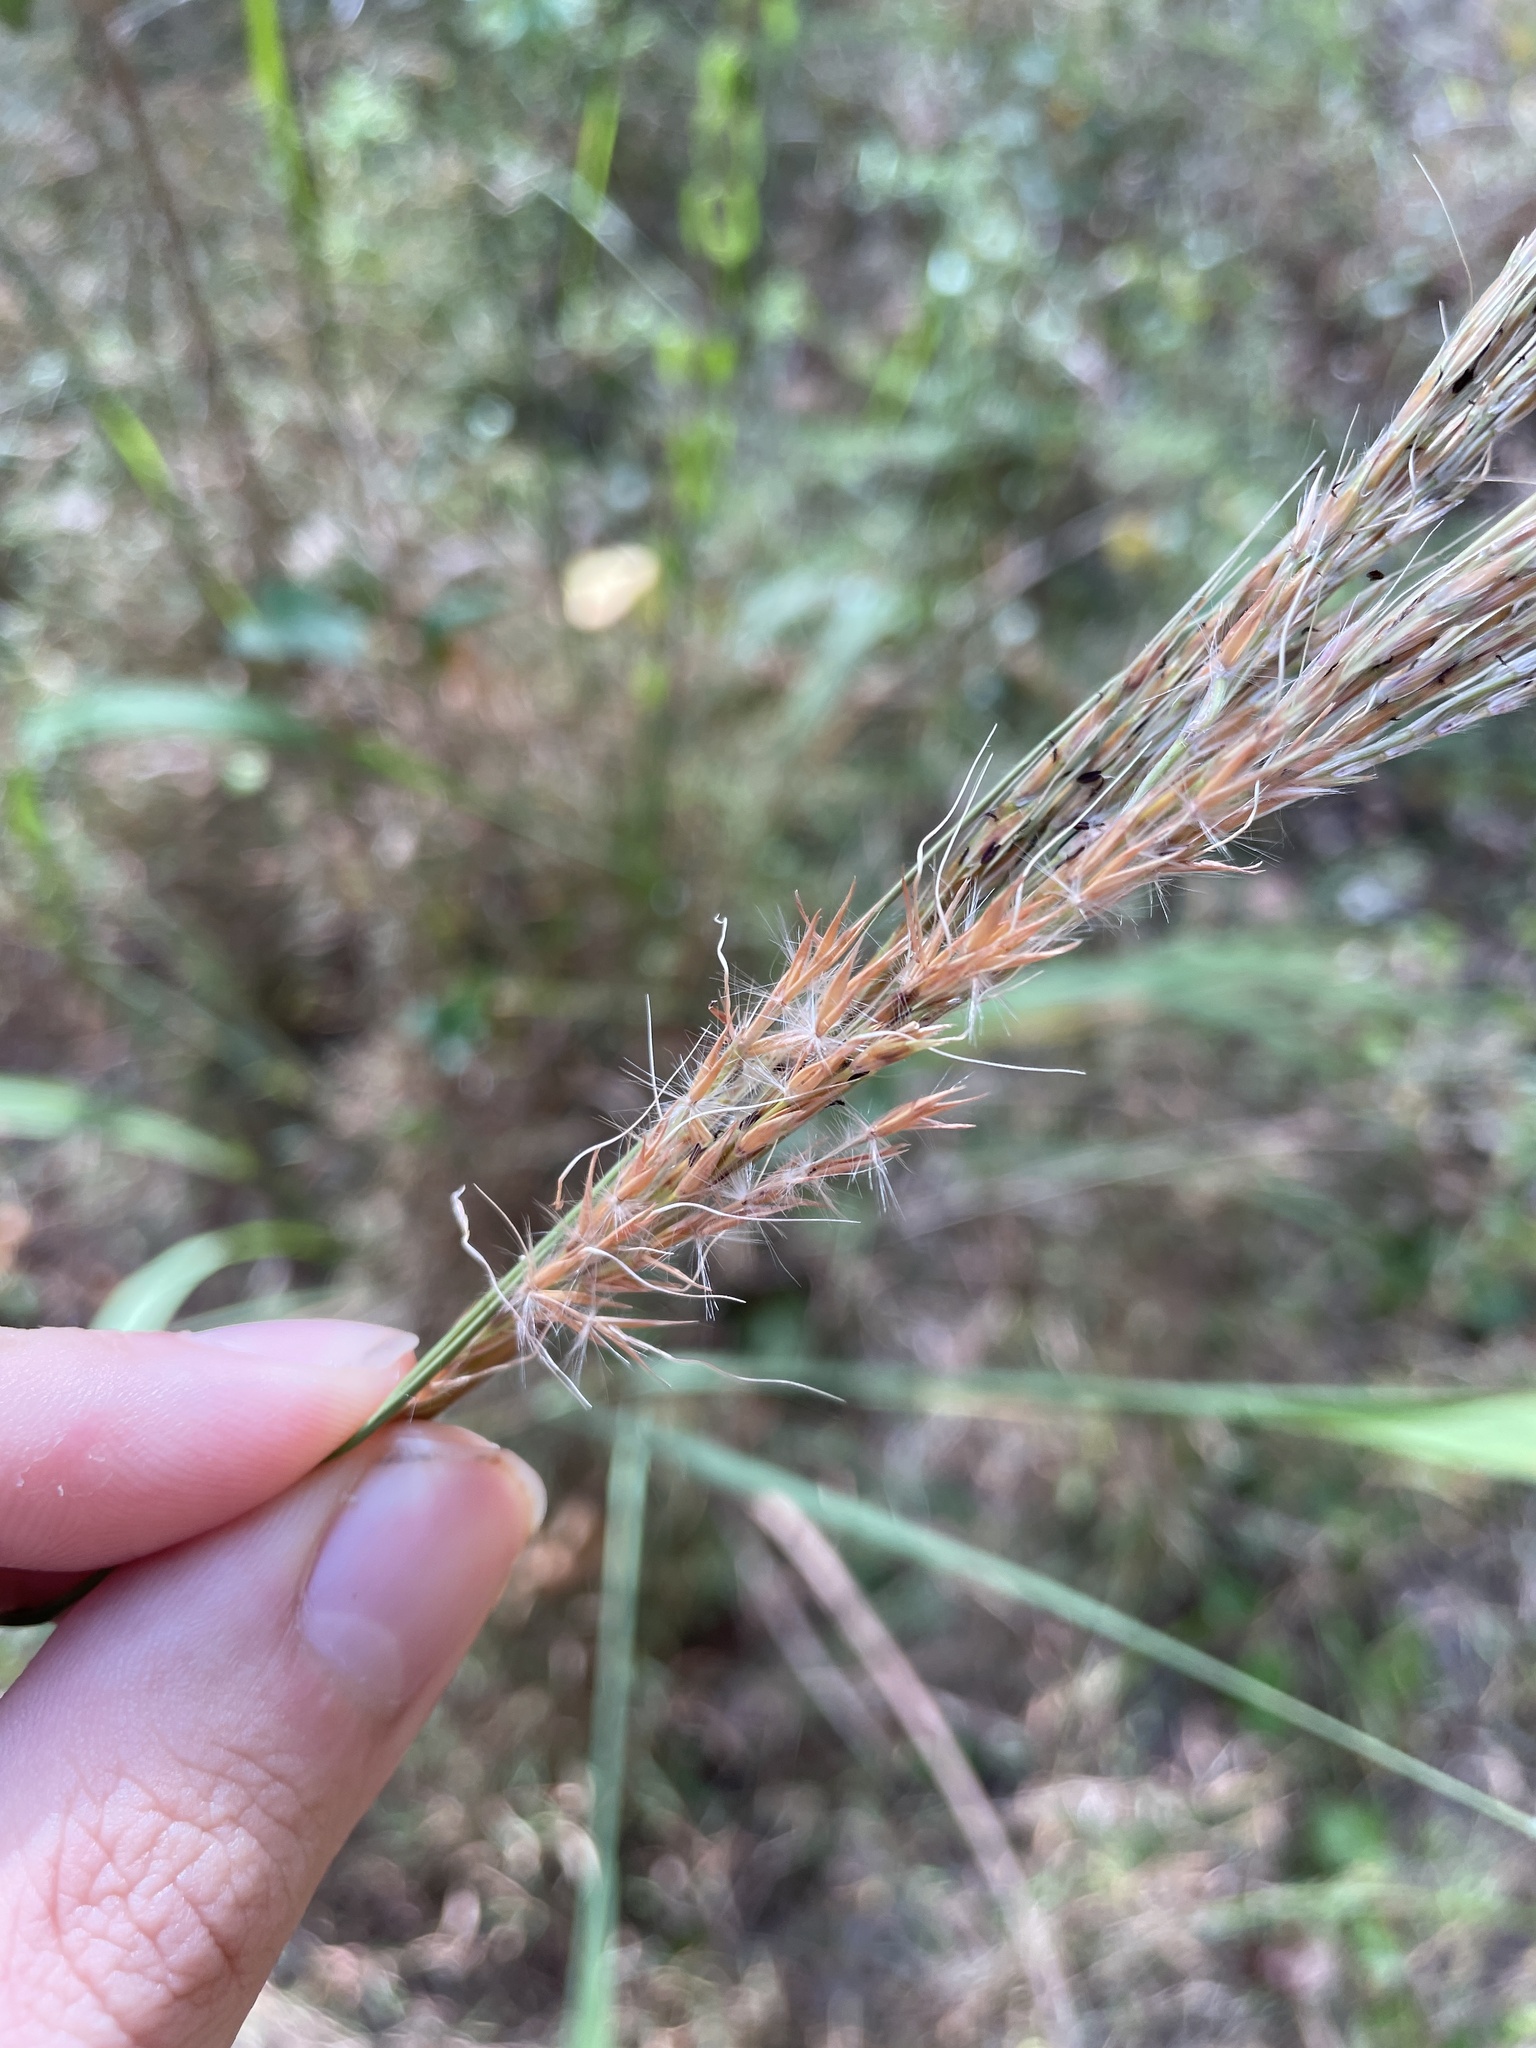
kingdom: Plantae
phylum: Tracheophyta
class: Liliopsida
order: Poales
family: Poaceae
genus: Erianthus
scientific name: Erianthus contortus
